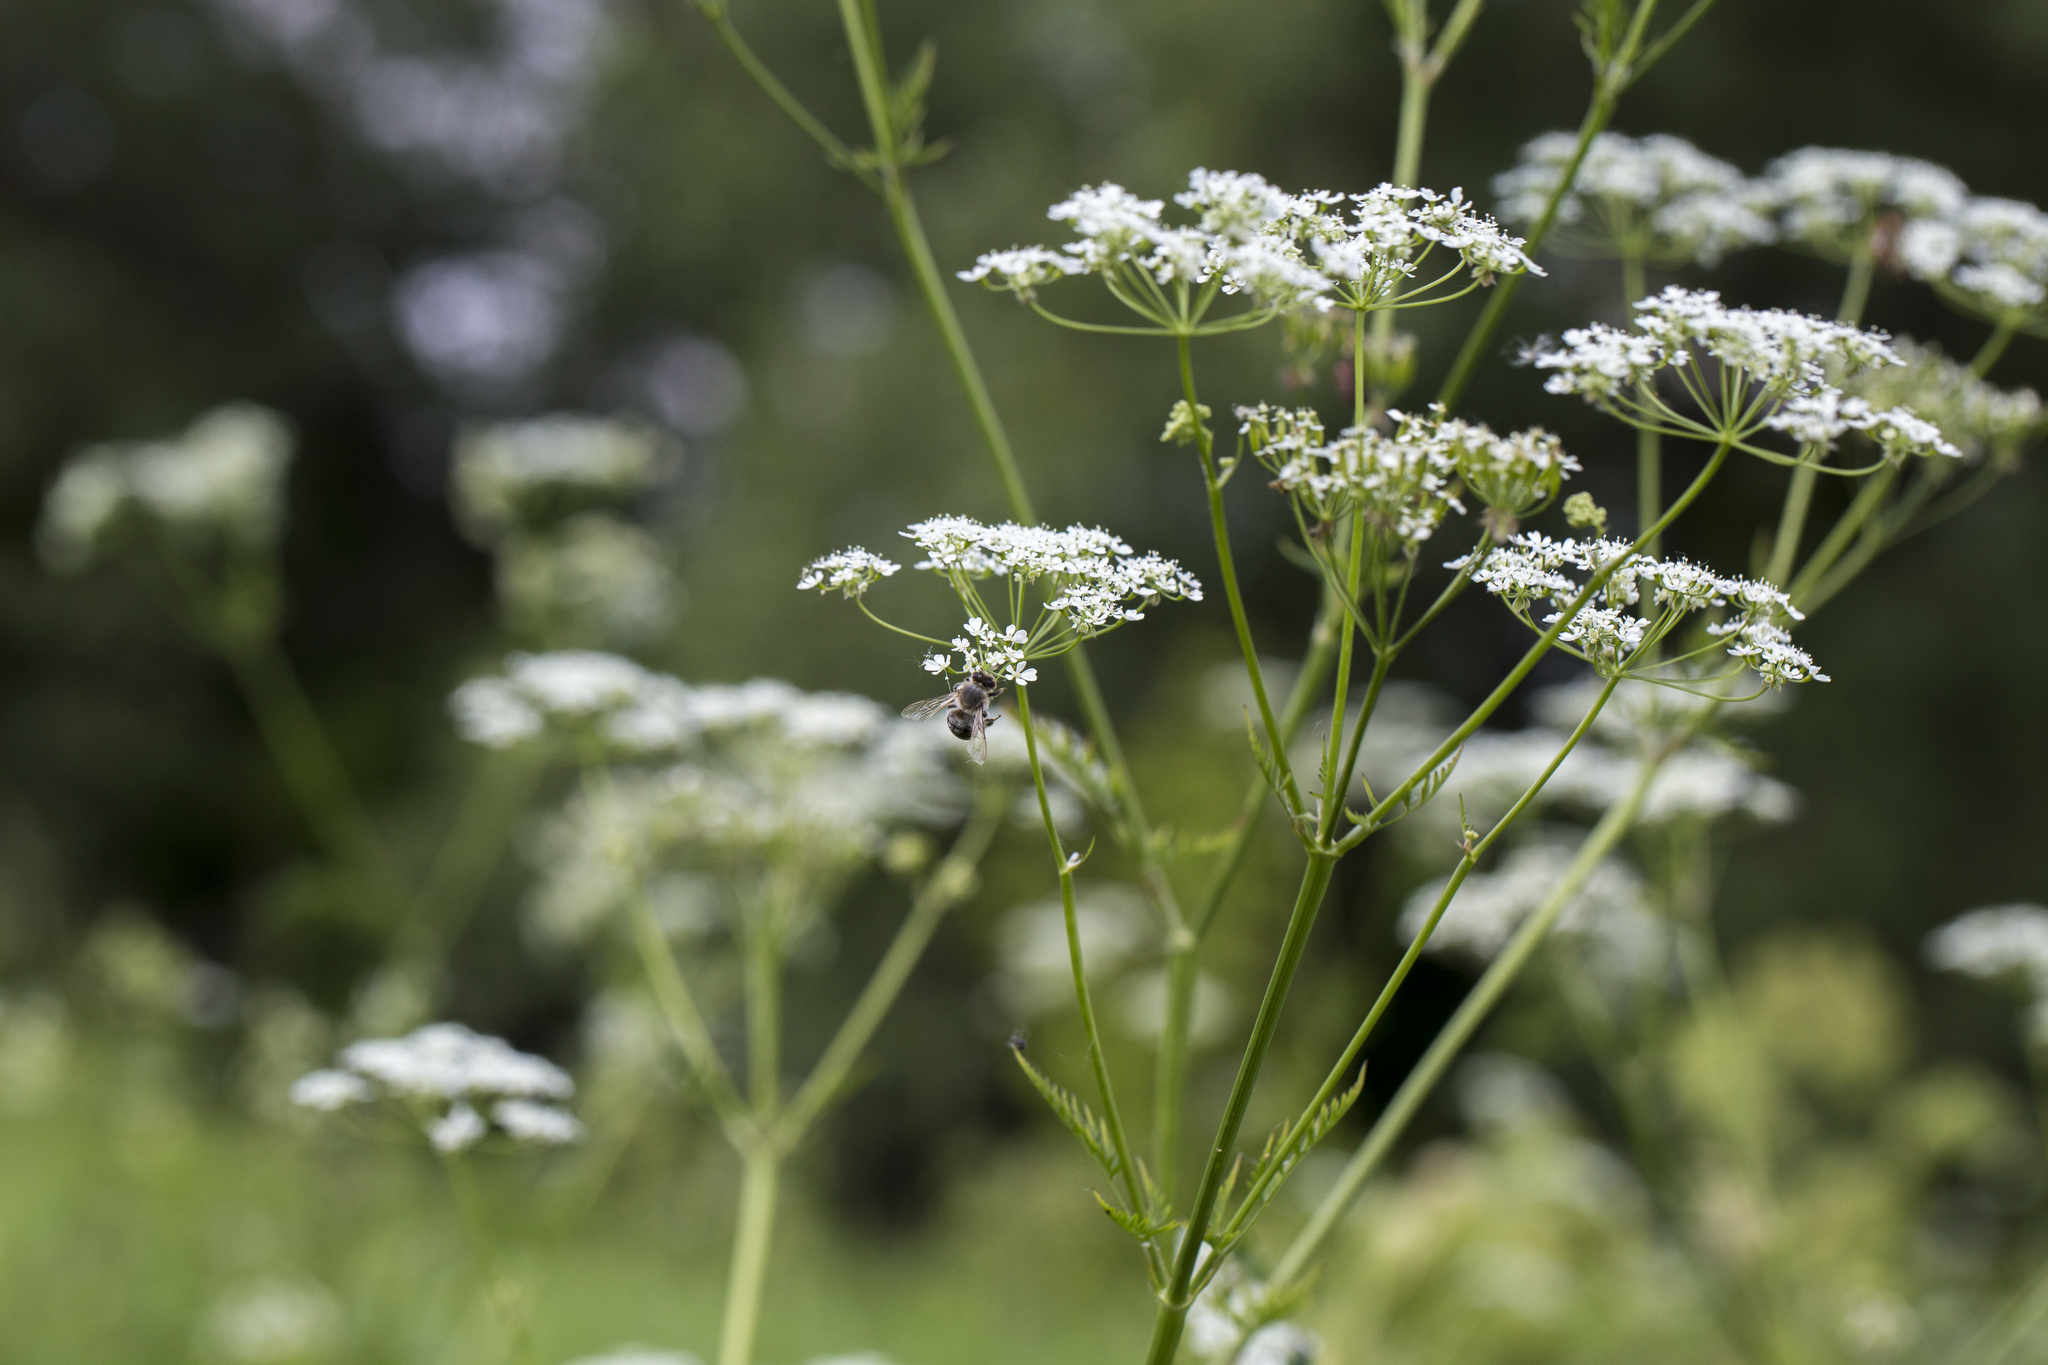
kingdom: Animalia
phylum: Arthropoda
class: Insecta
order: Hymenoptera
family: Apidae
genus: Apis
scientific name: Apis mellifera
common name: Honey bee
